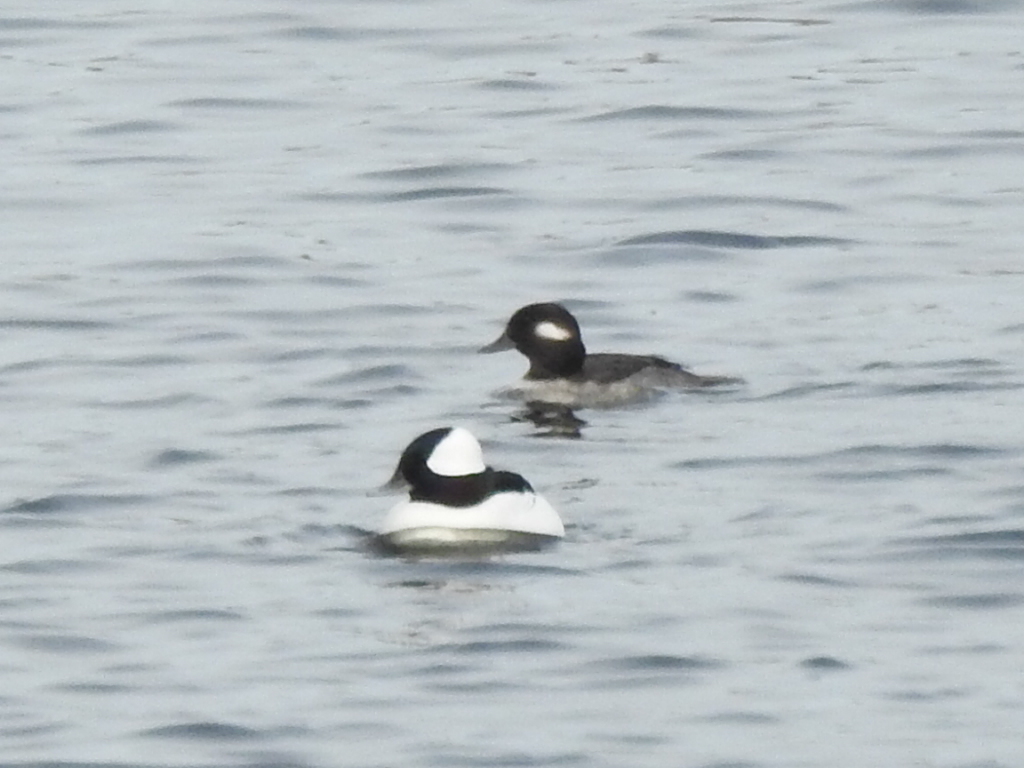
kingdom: Animalia
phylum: Chordata
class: Aves
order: Anseriformes
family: Anatidae
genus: Bucephala
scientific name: Bucephala albeola
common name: Bufflehead
